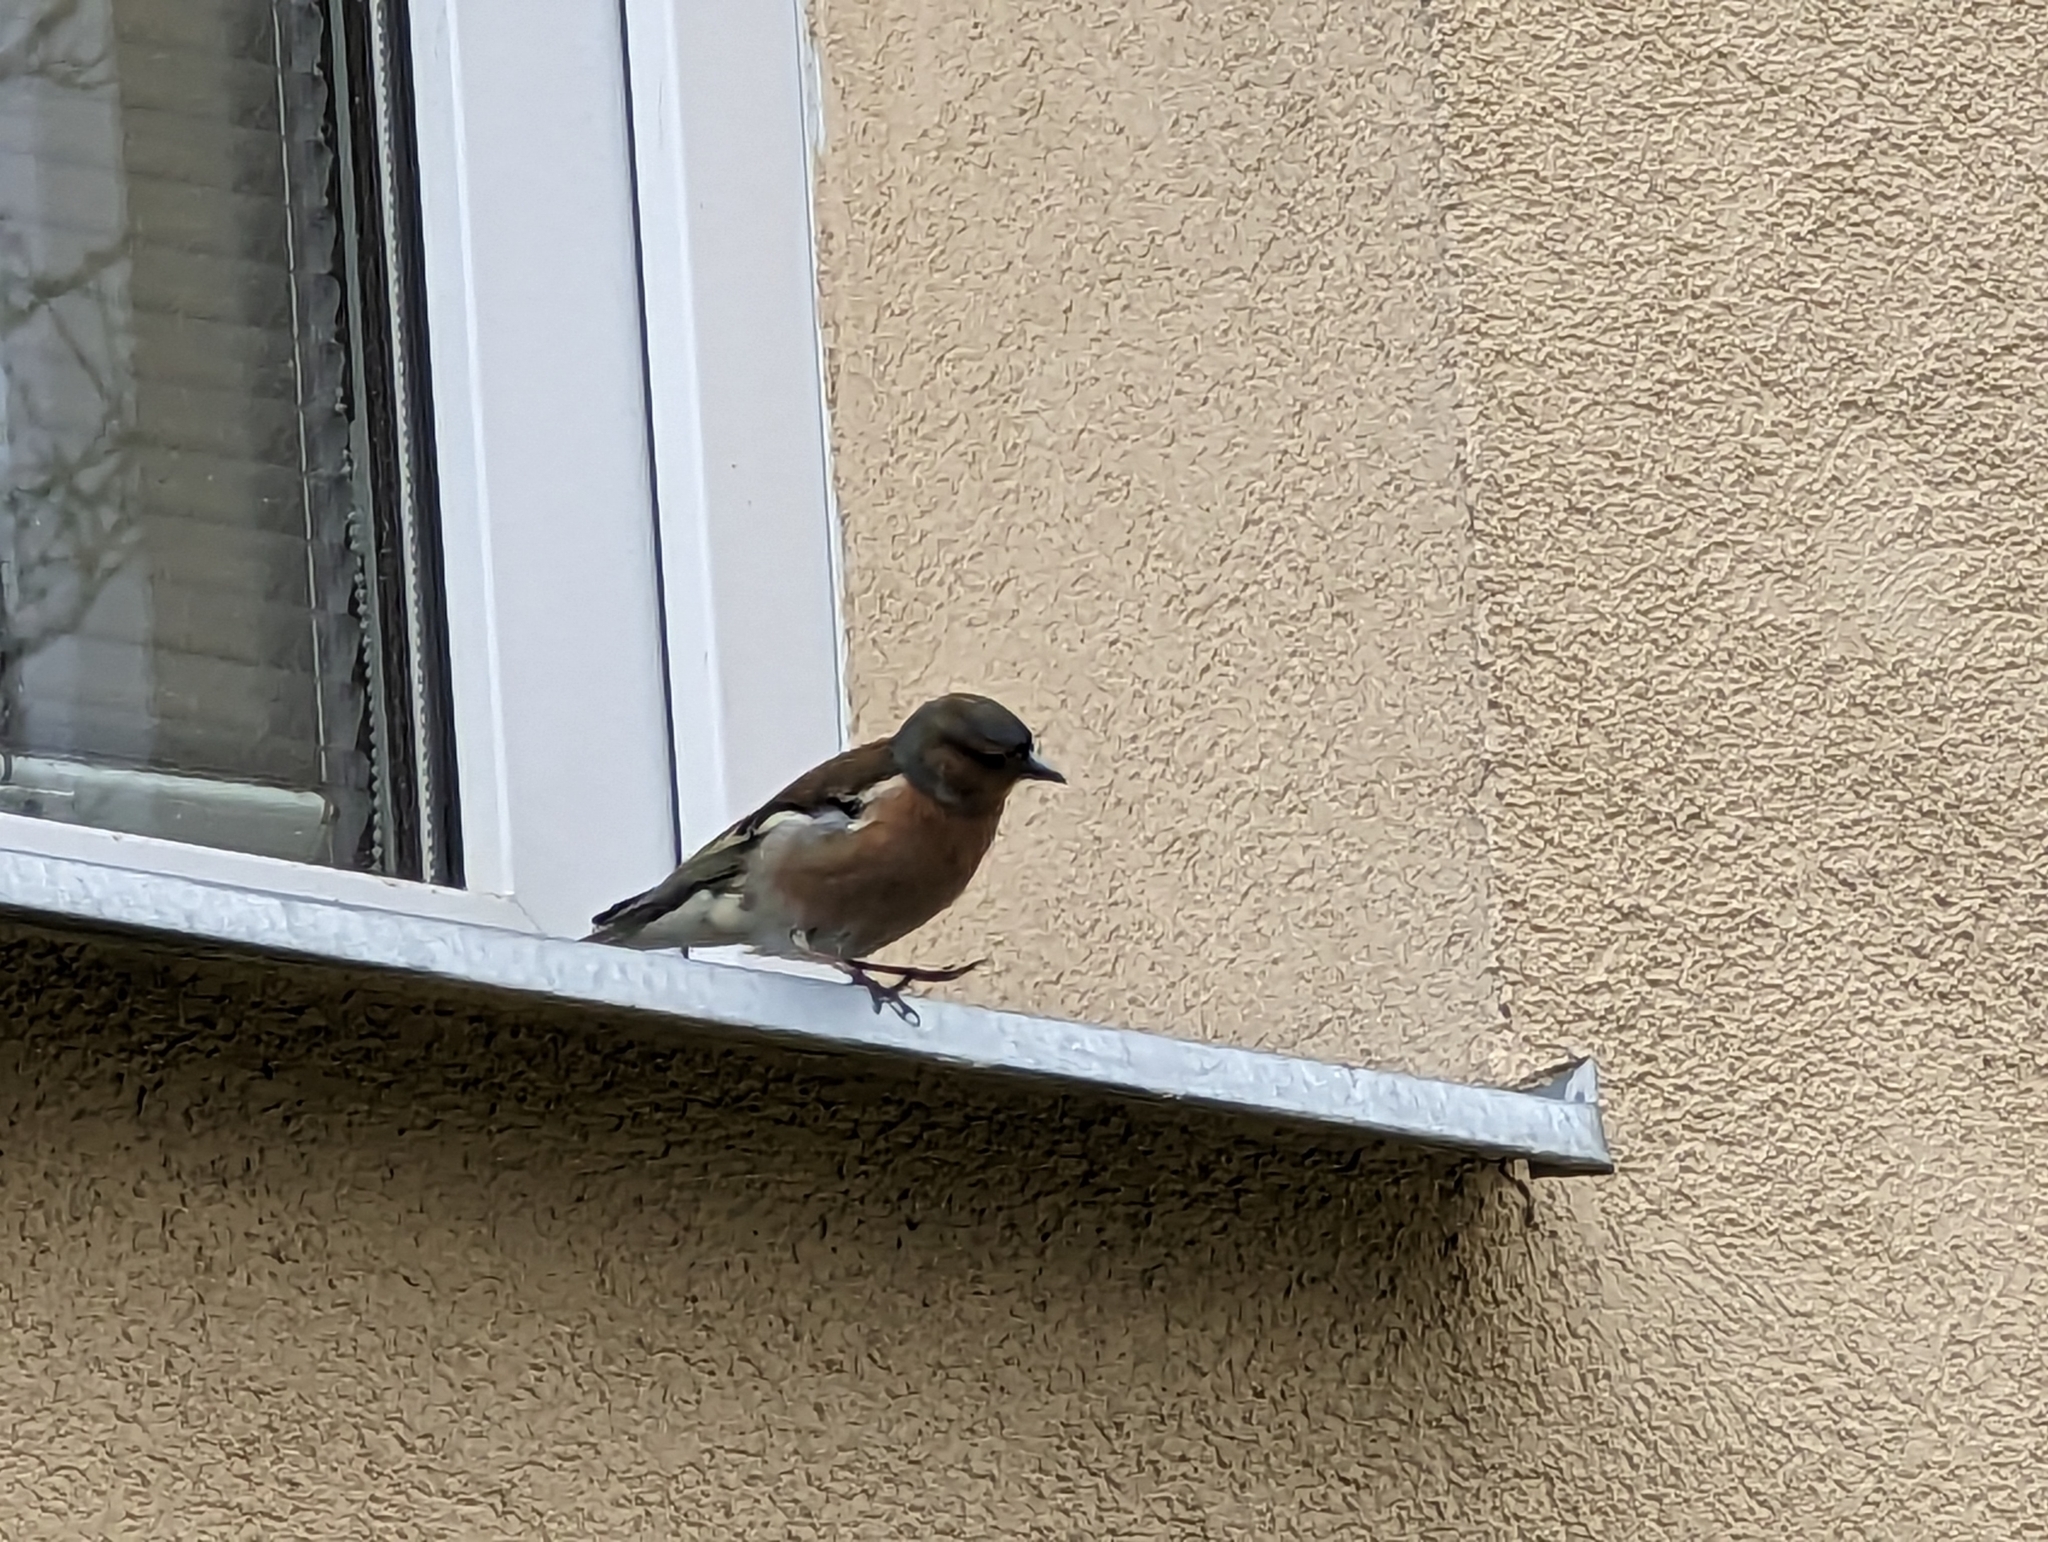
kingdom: Animalia
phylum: Chordata
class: Aves
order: Passeriformes
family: Fringillidae
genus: Fringilla
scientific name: Fringilla coelebs
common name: Common chaffinch
